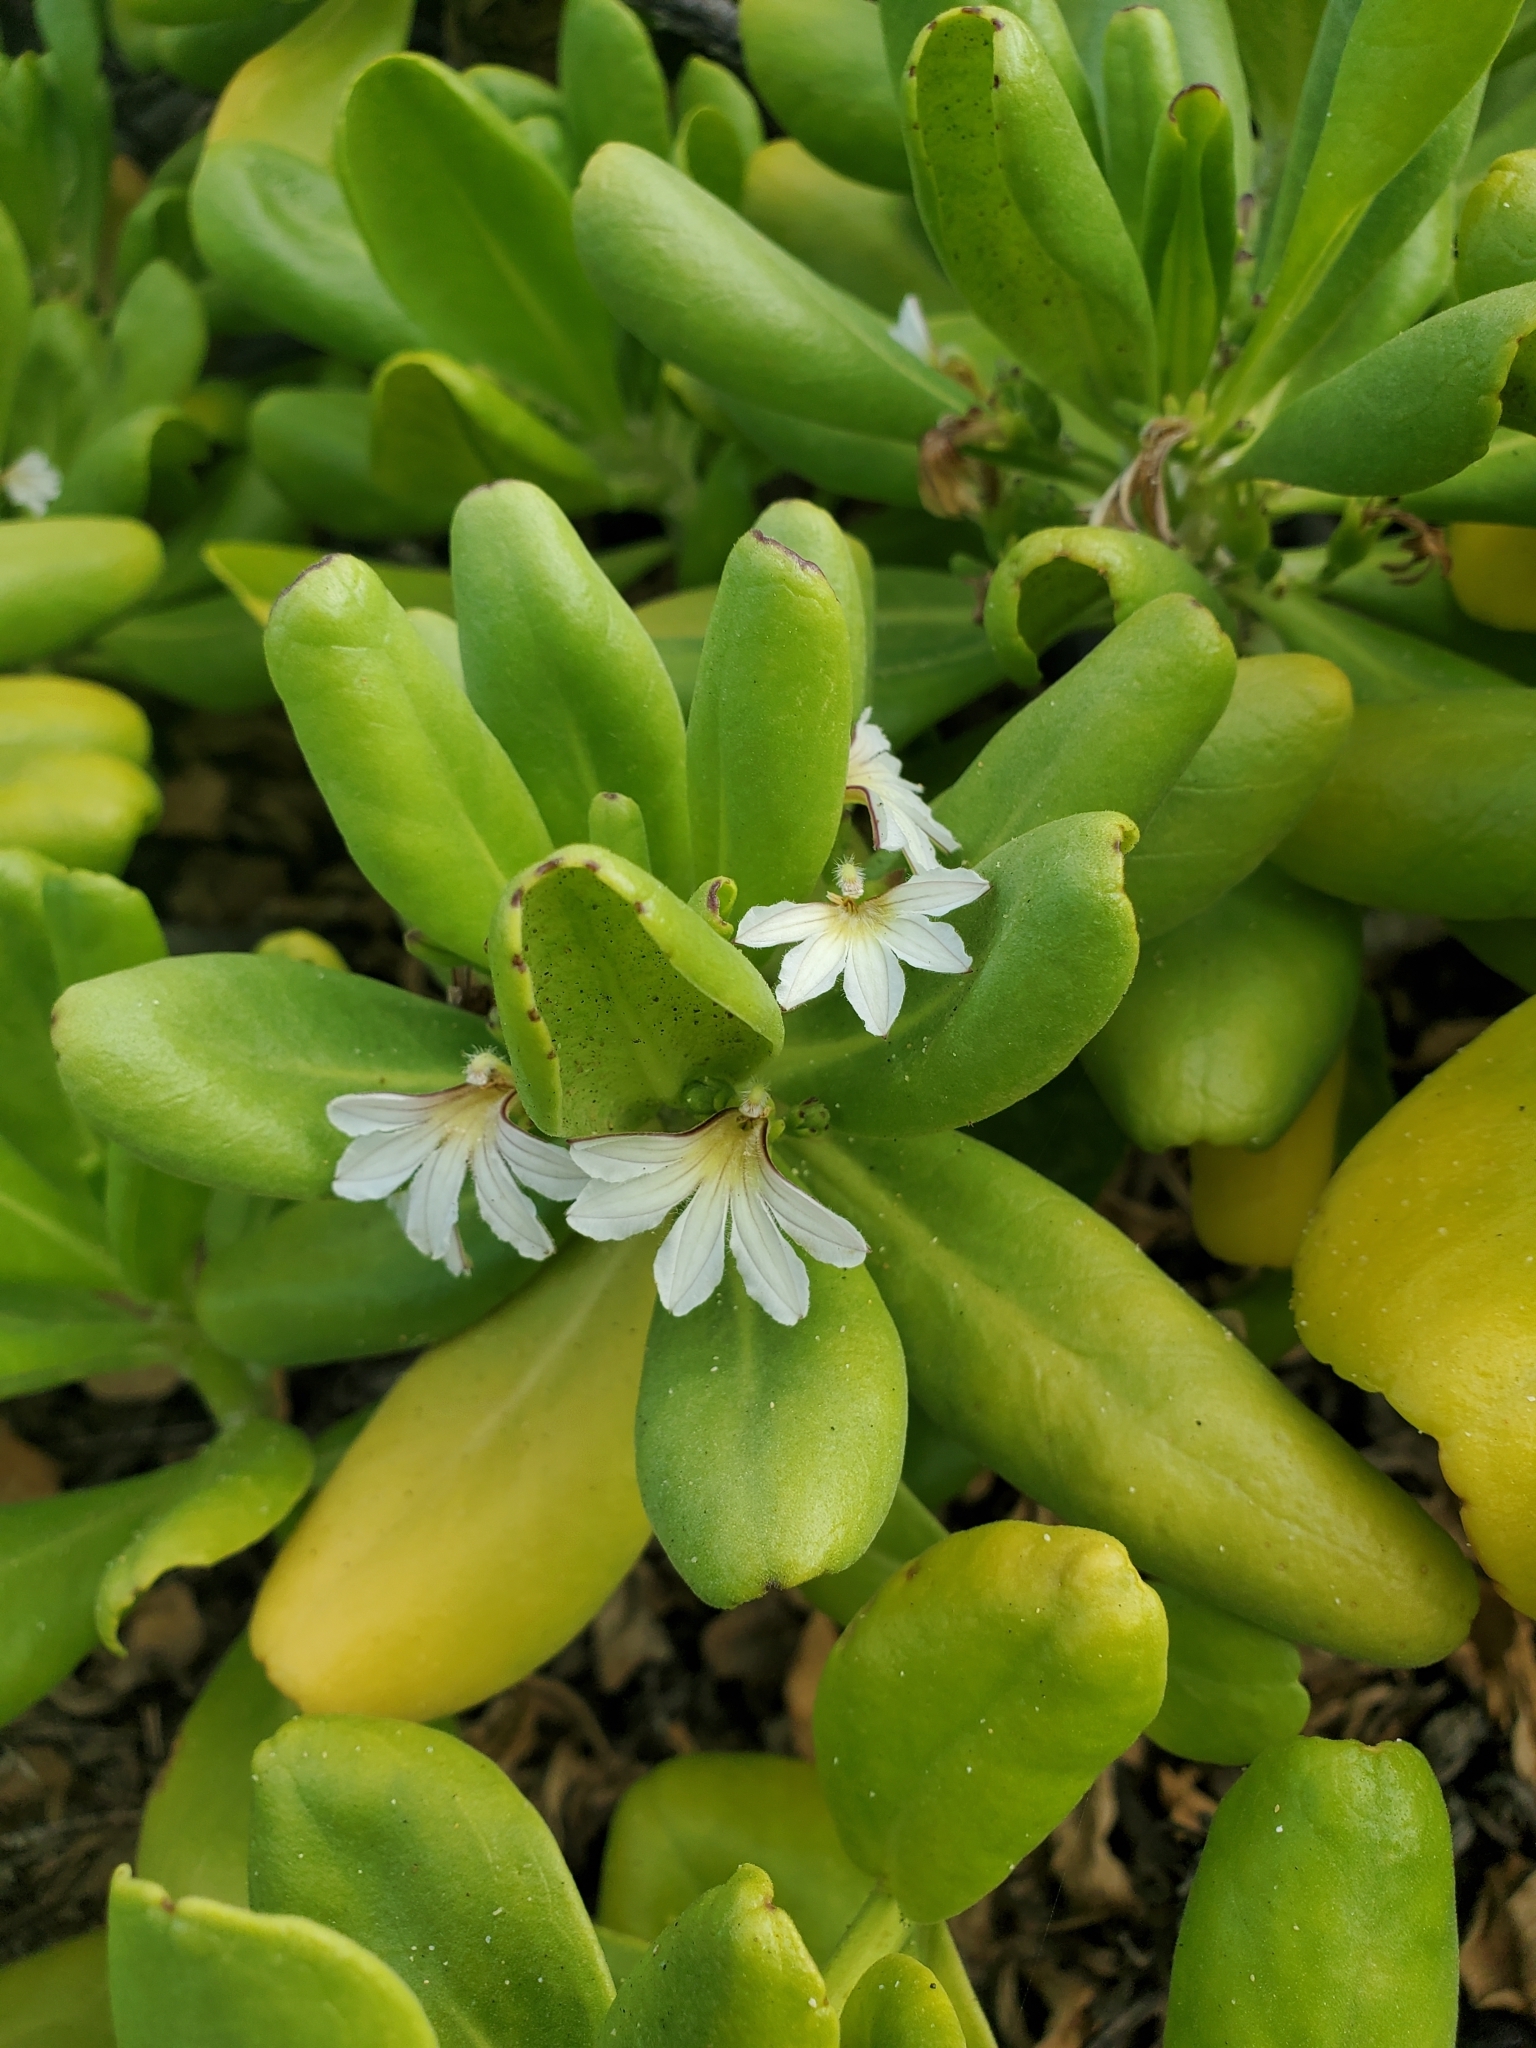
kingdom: Plantae
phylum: Tracheophyta
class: Magnoliopsida
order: Asterales
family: Goodeniaceae
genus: Scaevola
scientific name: Scaevola taccada
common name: Sea lettucetree
